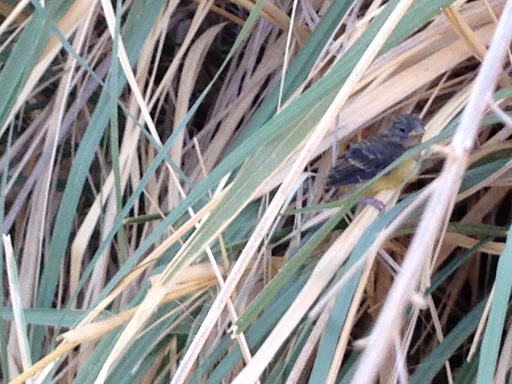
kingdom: Animalia
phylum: Chordata
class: Aves
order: Passeriformes
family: Fringillidae
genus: Spinus
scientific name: Spinus psaltria
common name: Lesser goldfinch
